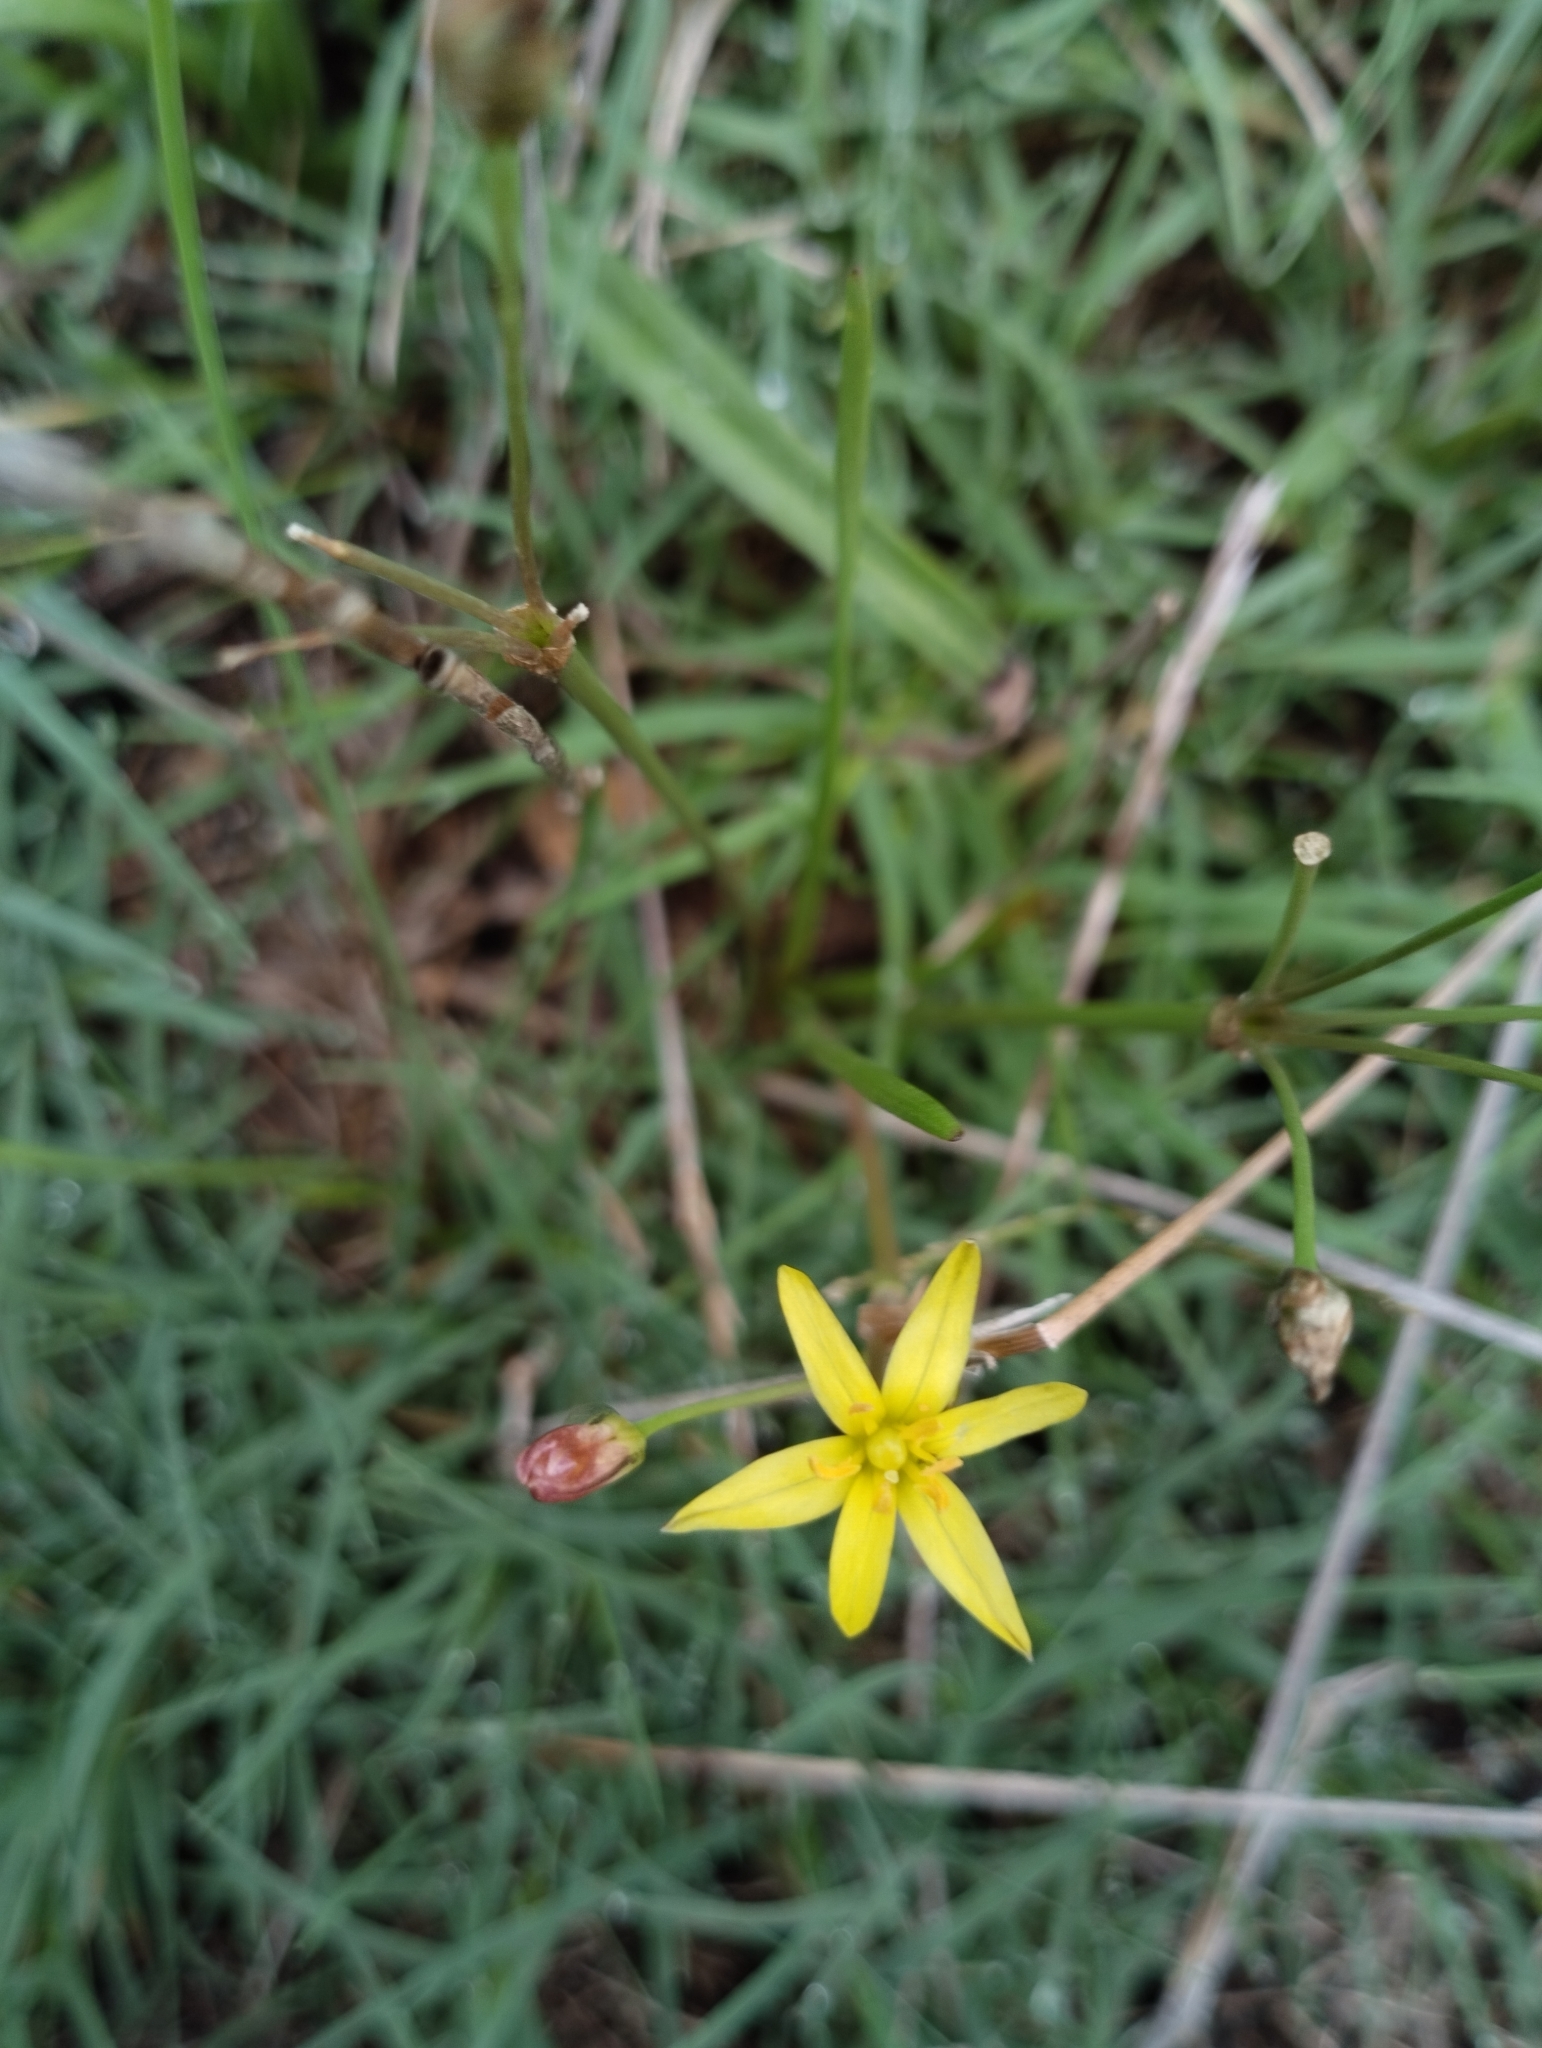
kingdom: Plantae
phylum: Tracheophyta
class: Liliopsida
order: Asparagales
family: Amaryllidaceae
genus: Nothoscordum
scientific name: Nothoscordum montevidense
